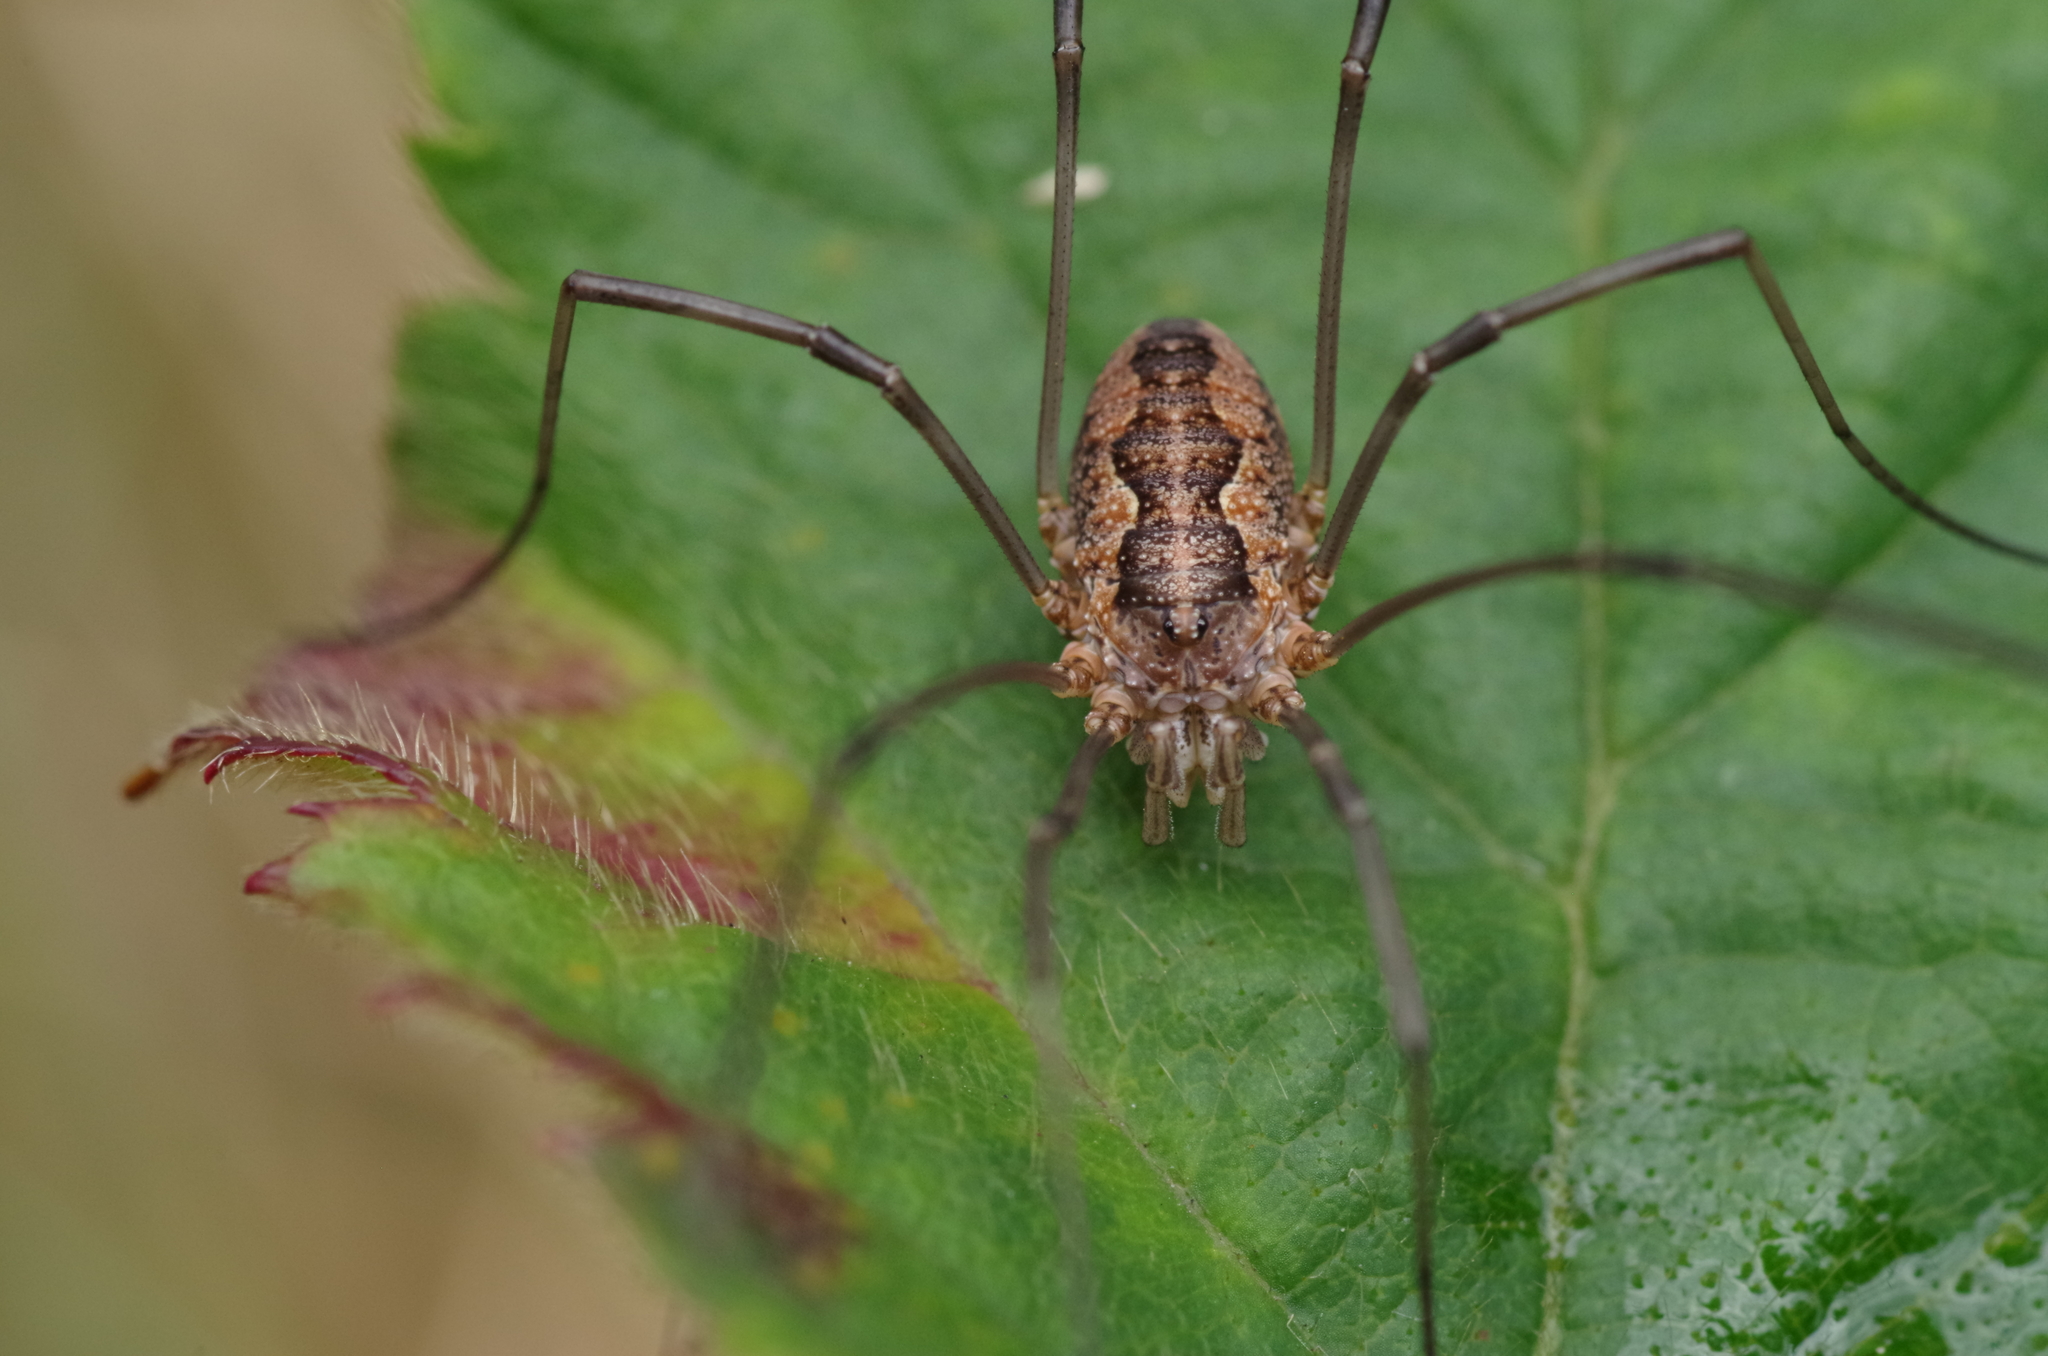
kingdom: Animalia
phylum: Arthropoda
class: Arachnida
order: Opiliones
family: Phalangiidae
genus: Phalangium
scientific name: Phalangium opilio
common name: Daddy longleg
